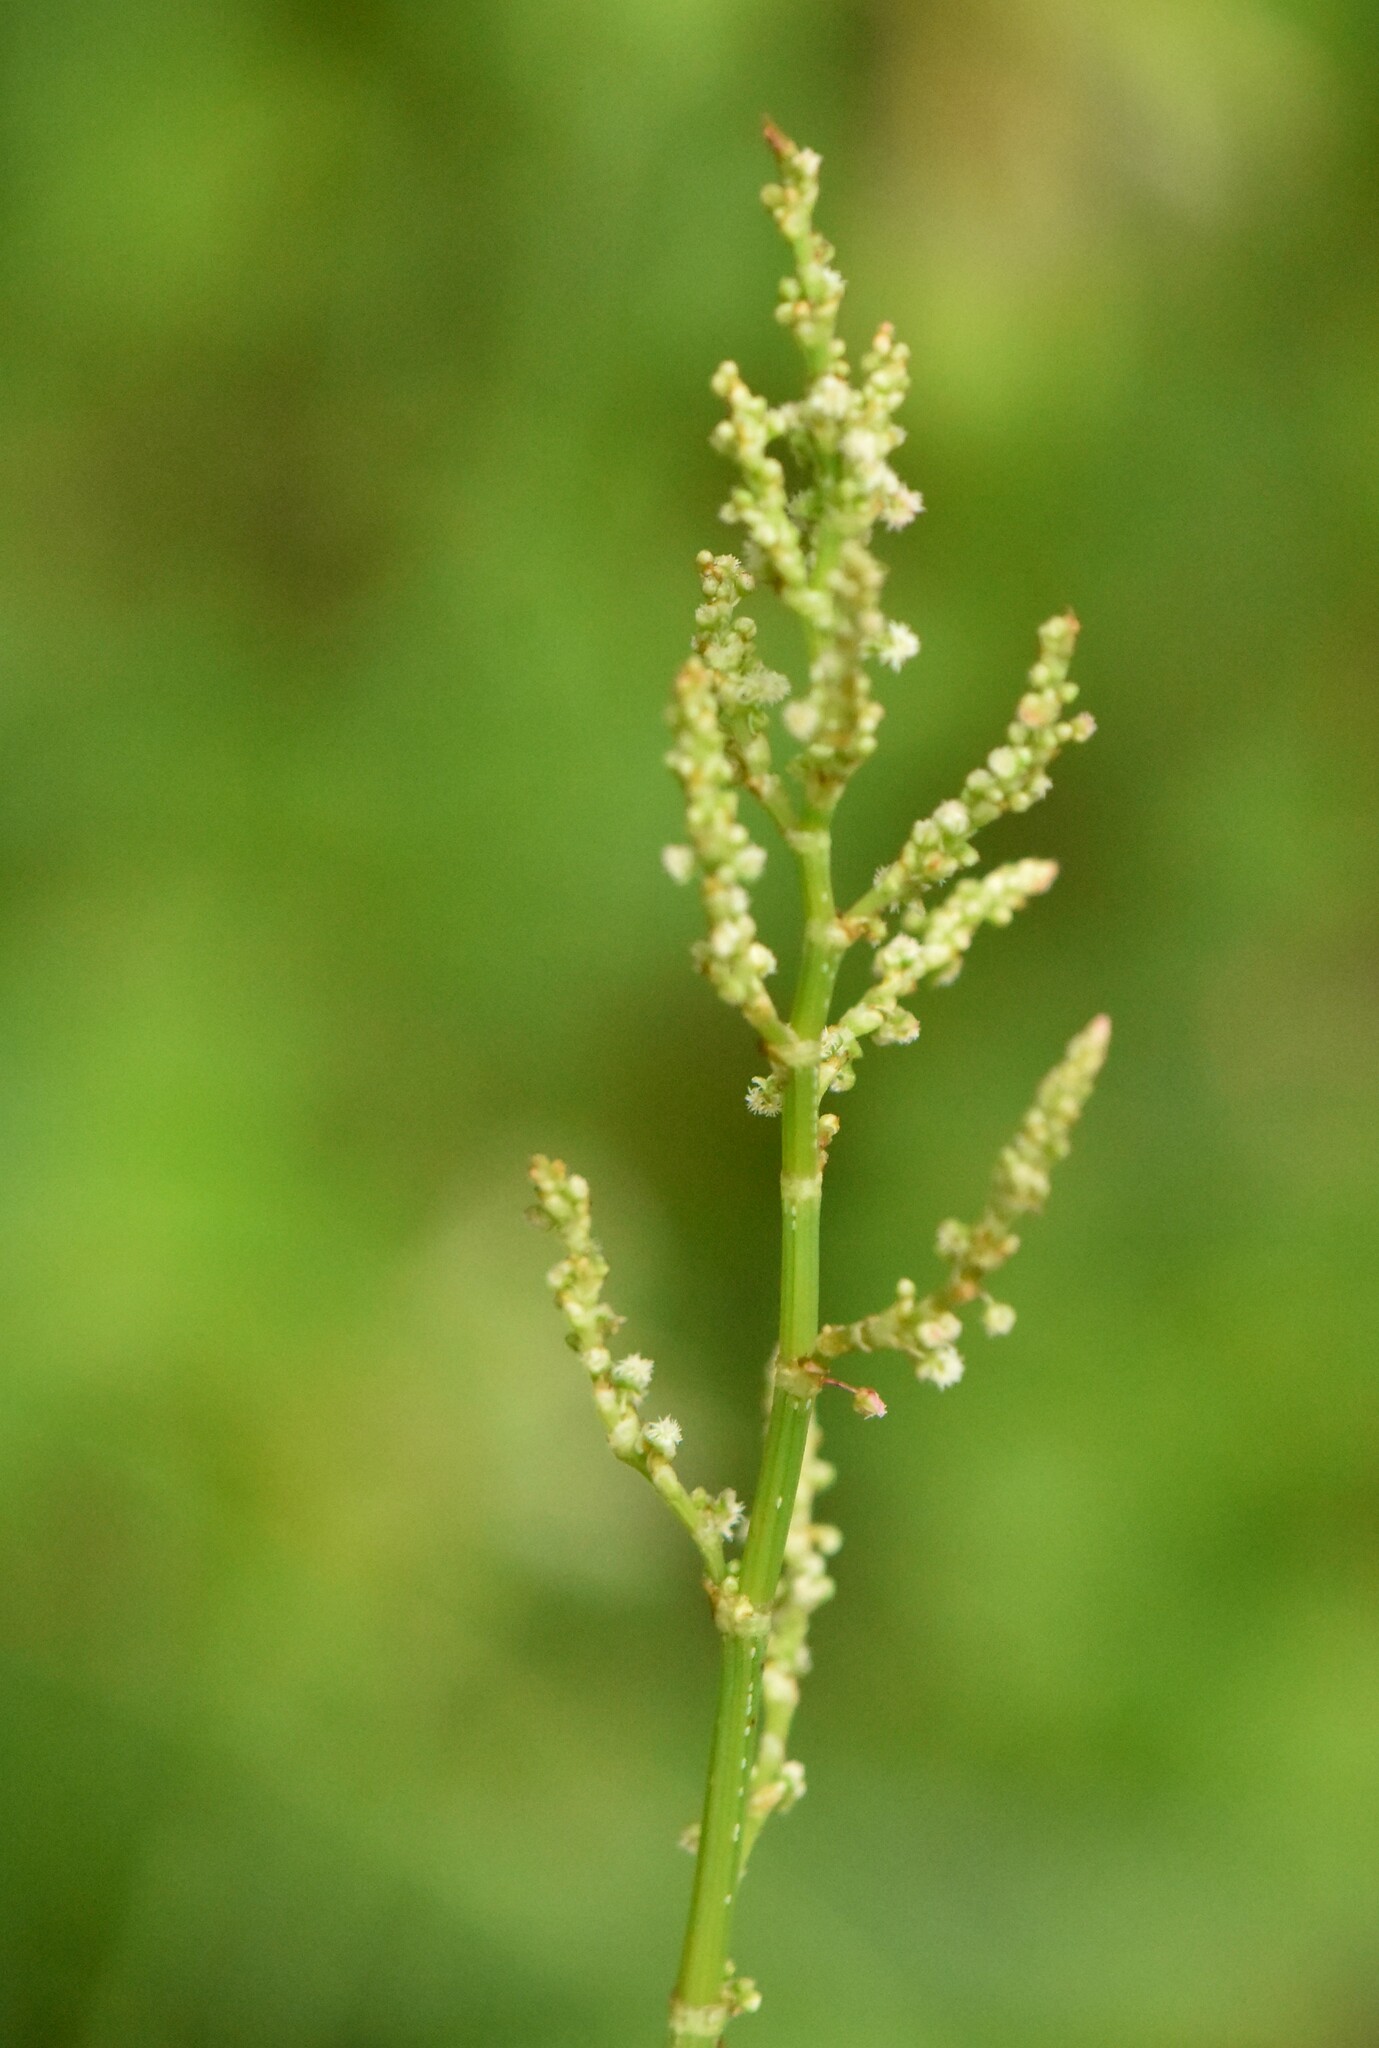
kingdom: Plantae
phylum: Tracheophyta
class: Magnoliopsida
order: Caryophyllales
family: Polygonaceae
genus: Rumex
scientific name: Rumex acetosa
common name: Garden sorrel
